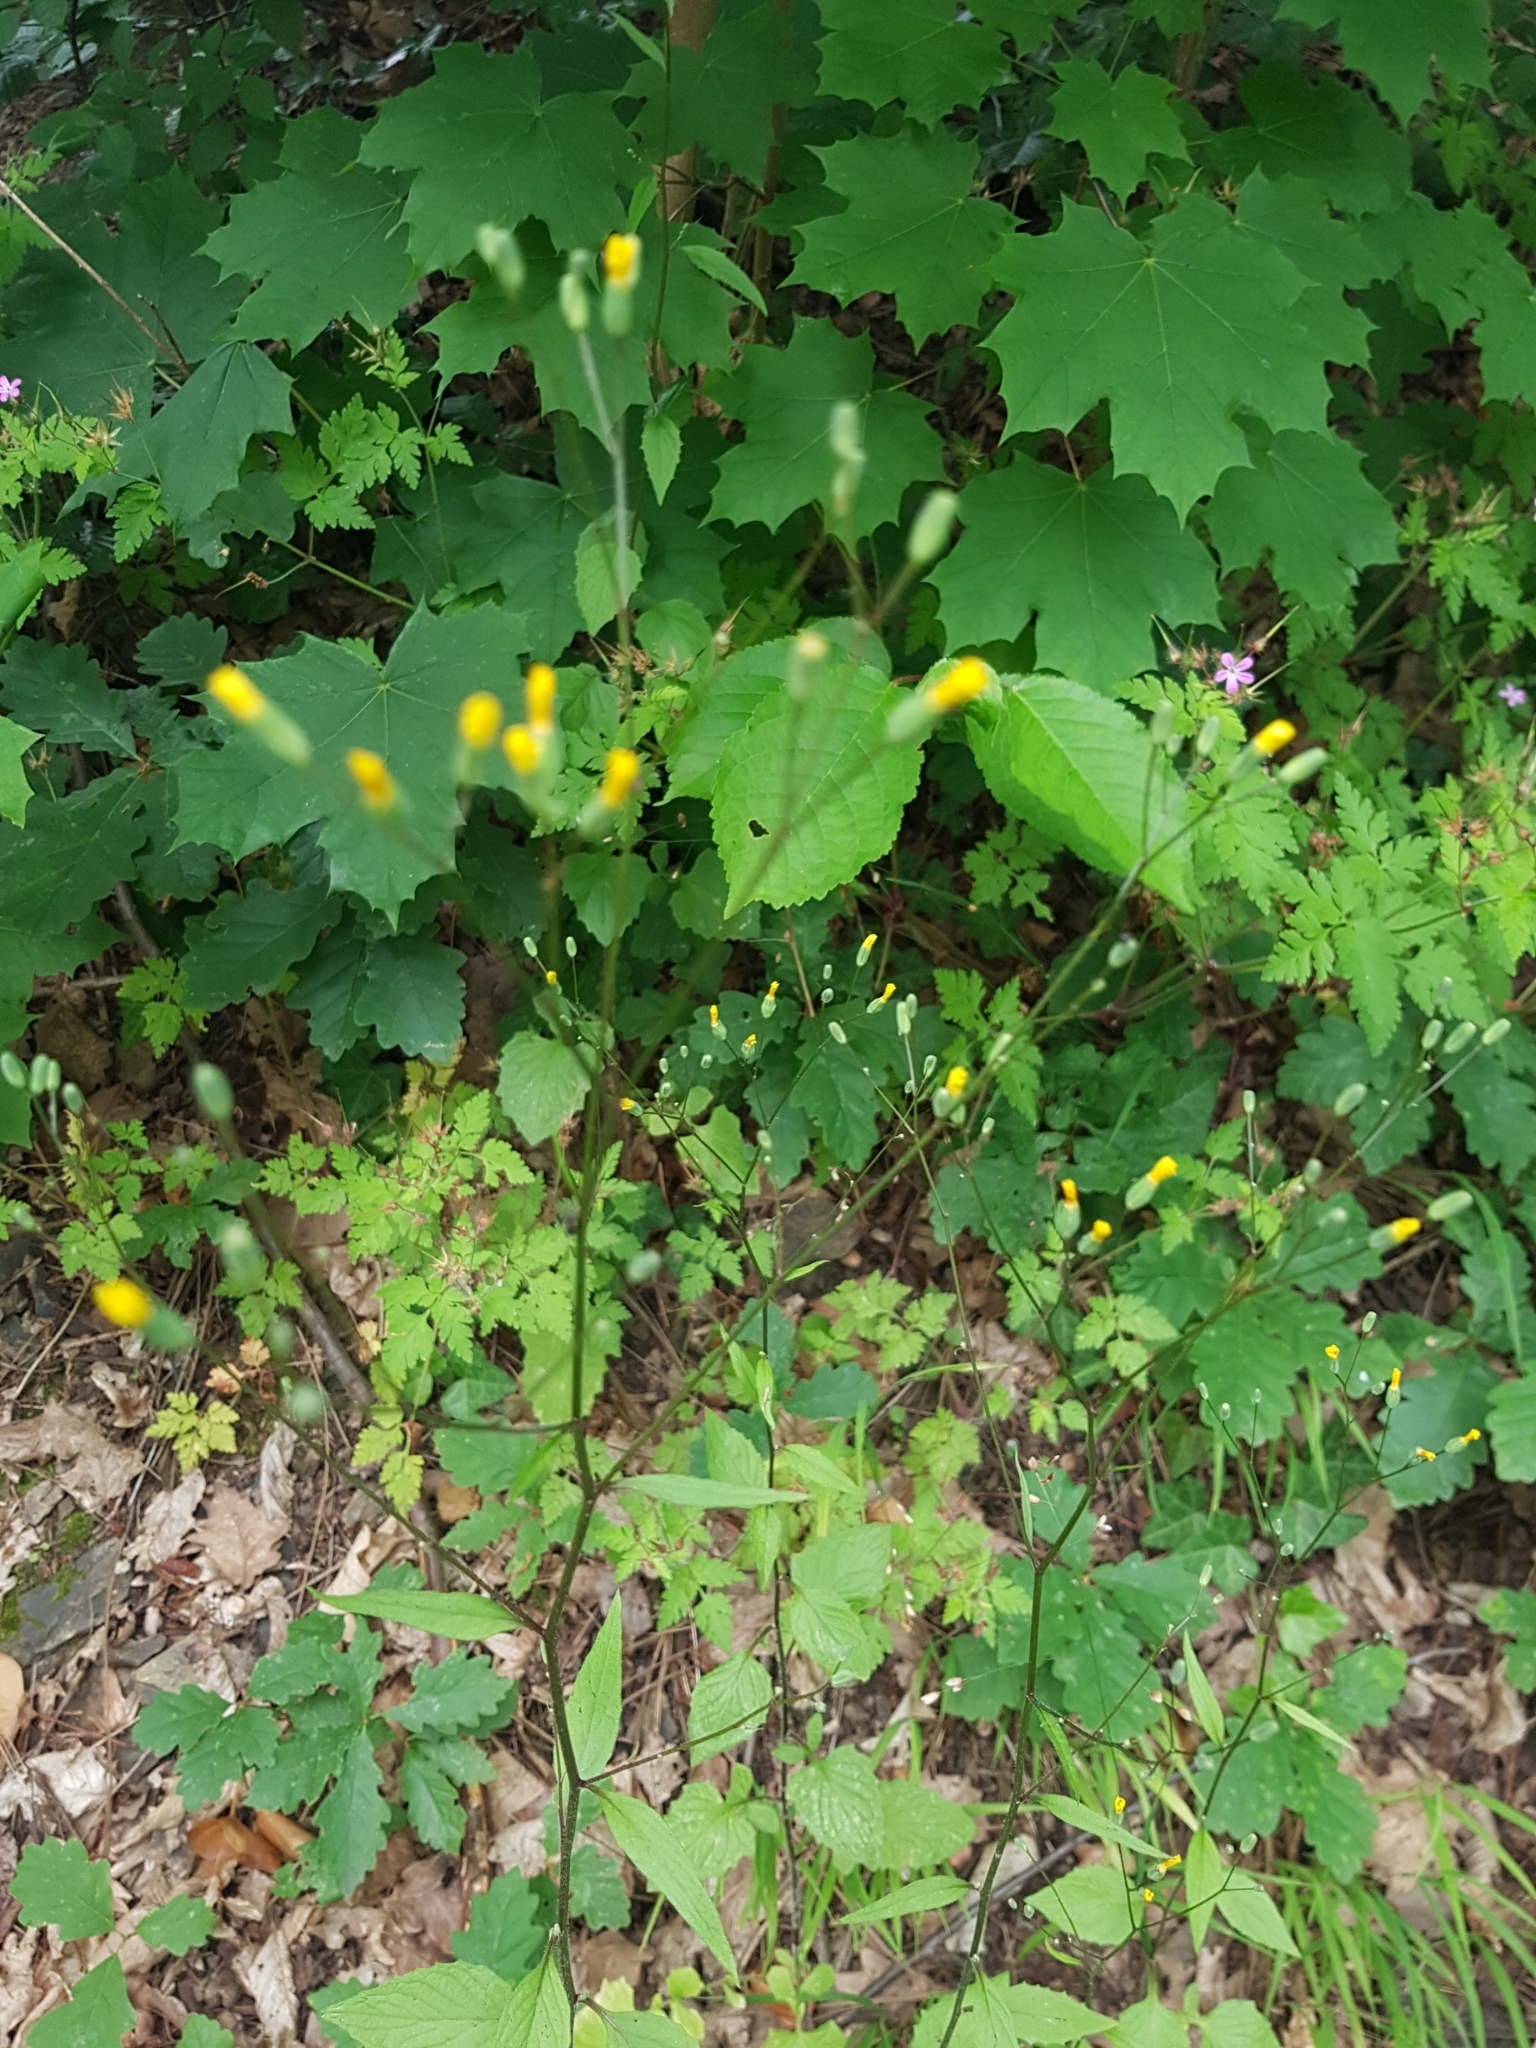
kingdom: Plantae
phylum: Tracheophyta
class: Magnoliopsida
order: Asterales
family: Asteraceae
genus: Lapsana
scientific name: Lapsana communis
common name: Nipplewort
